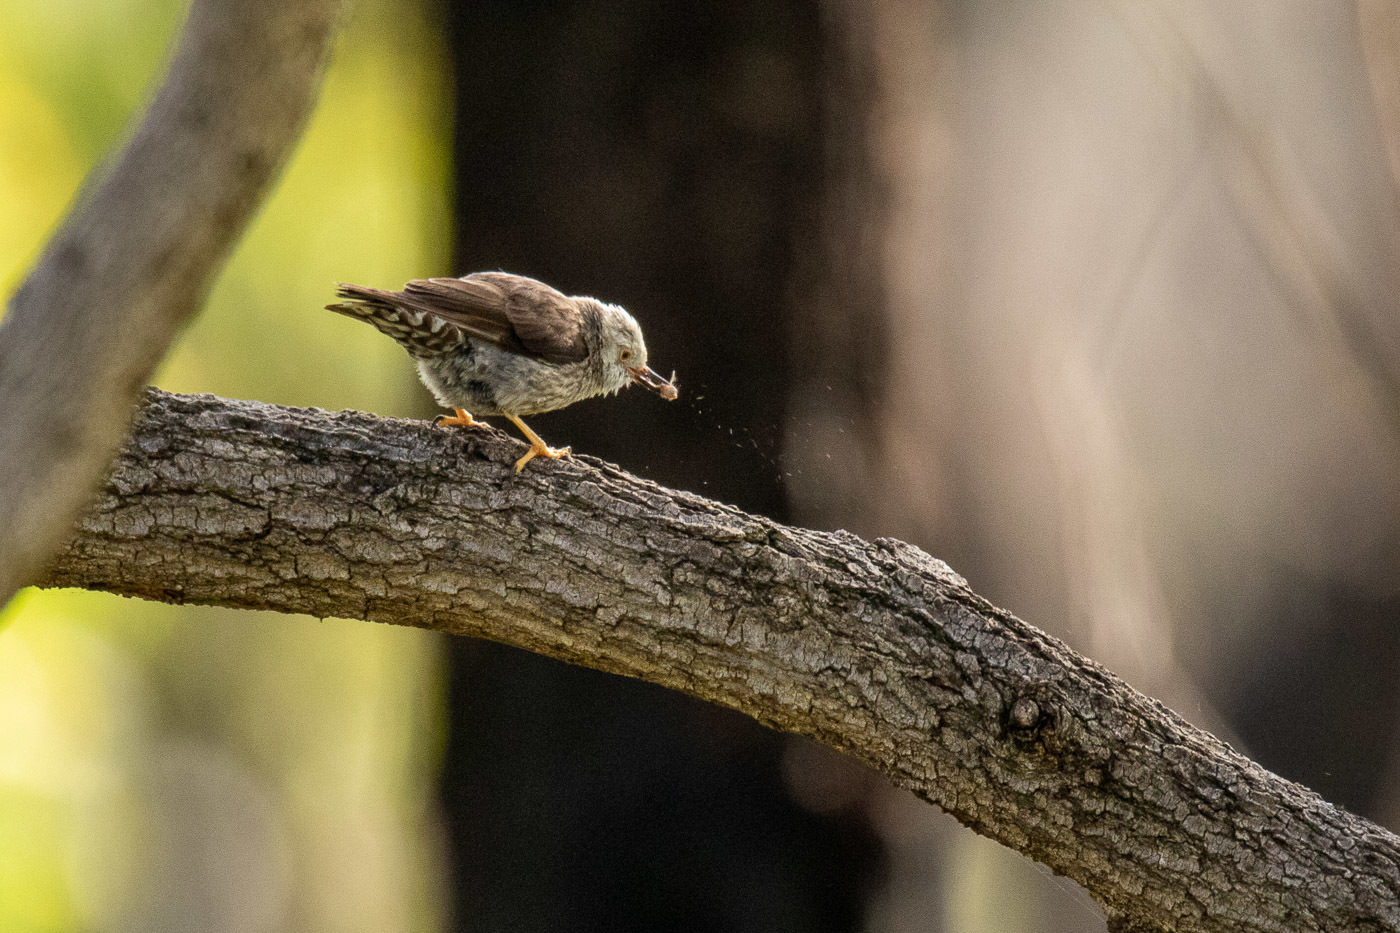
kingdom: Animalia
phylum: Chordata
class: Aves
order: Passeriformes
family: Neosittidae
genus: Daphoenositta
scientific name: Daphoenositta chrysoptera
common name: Varied sittella
